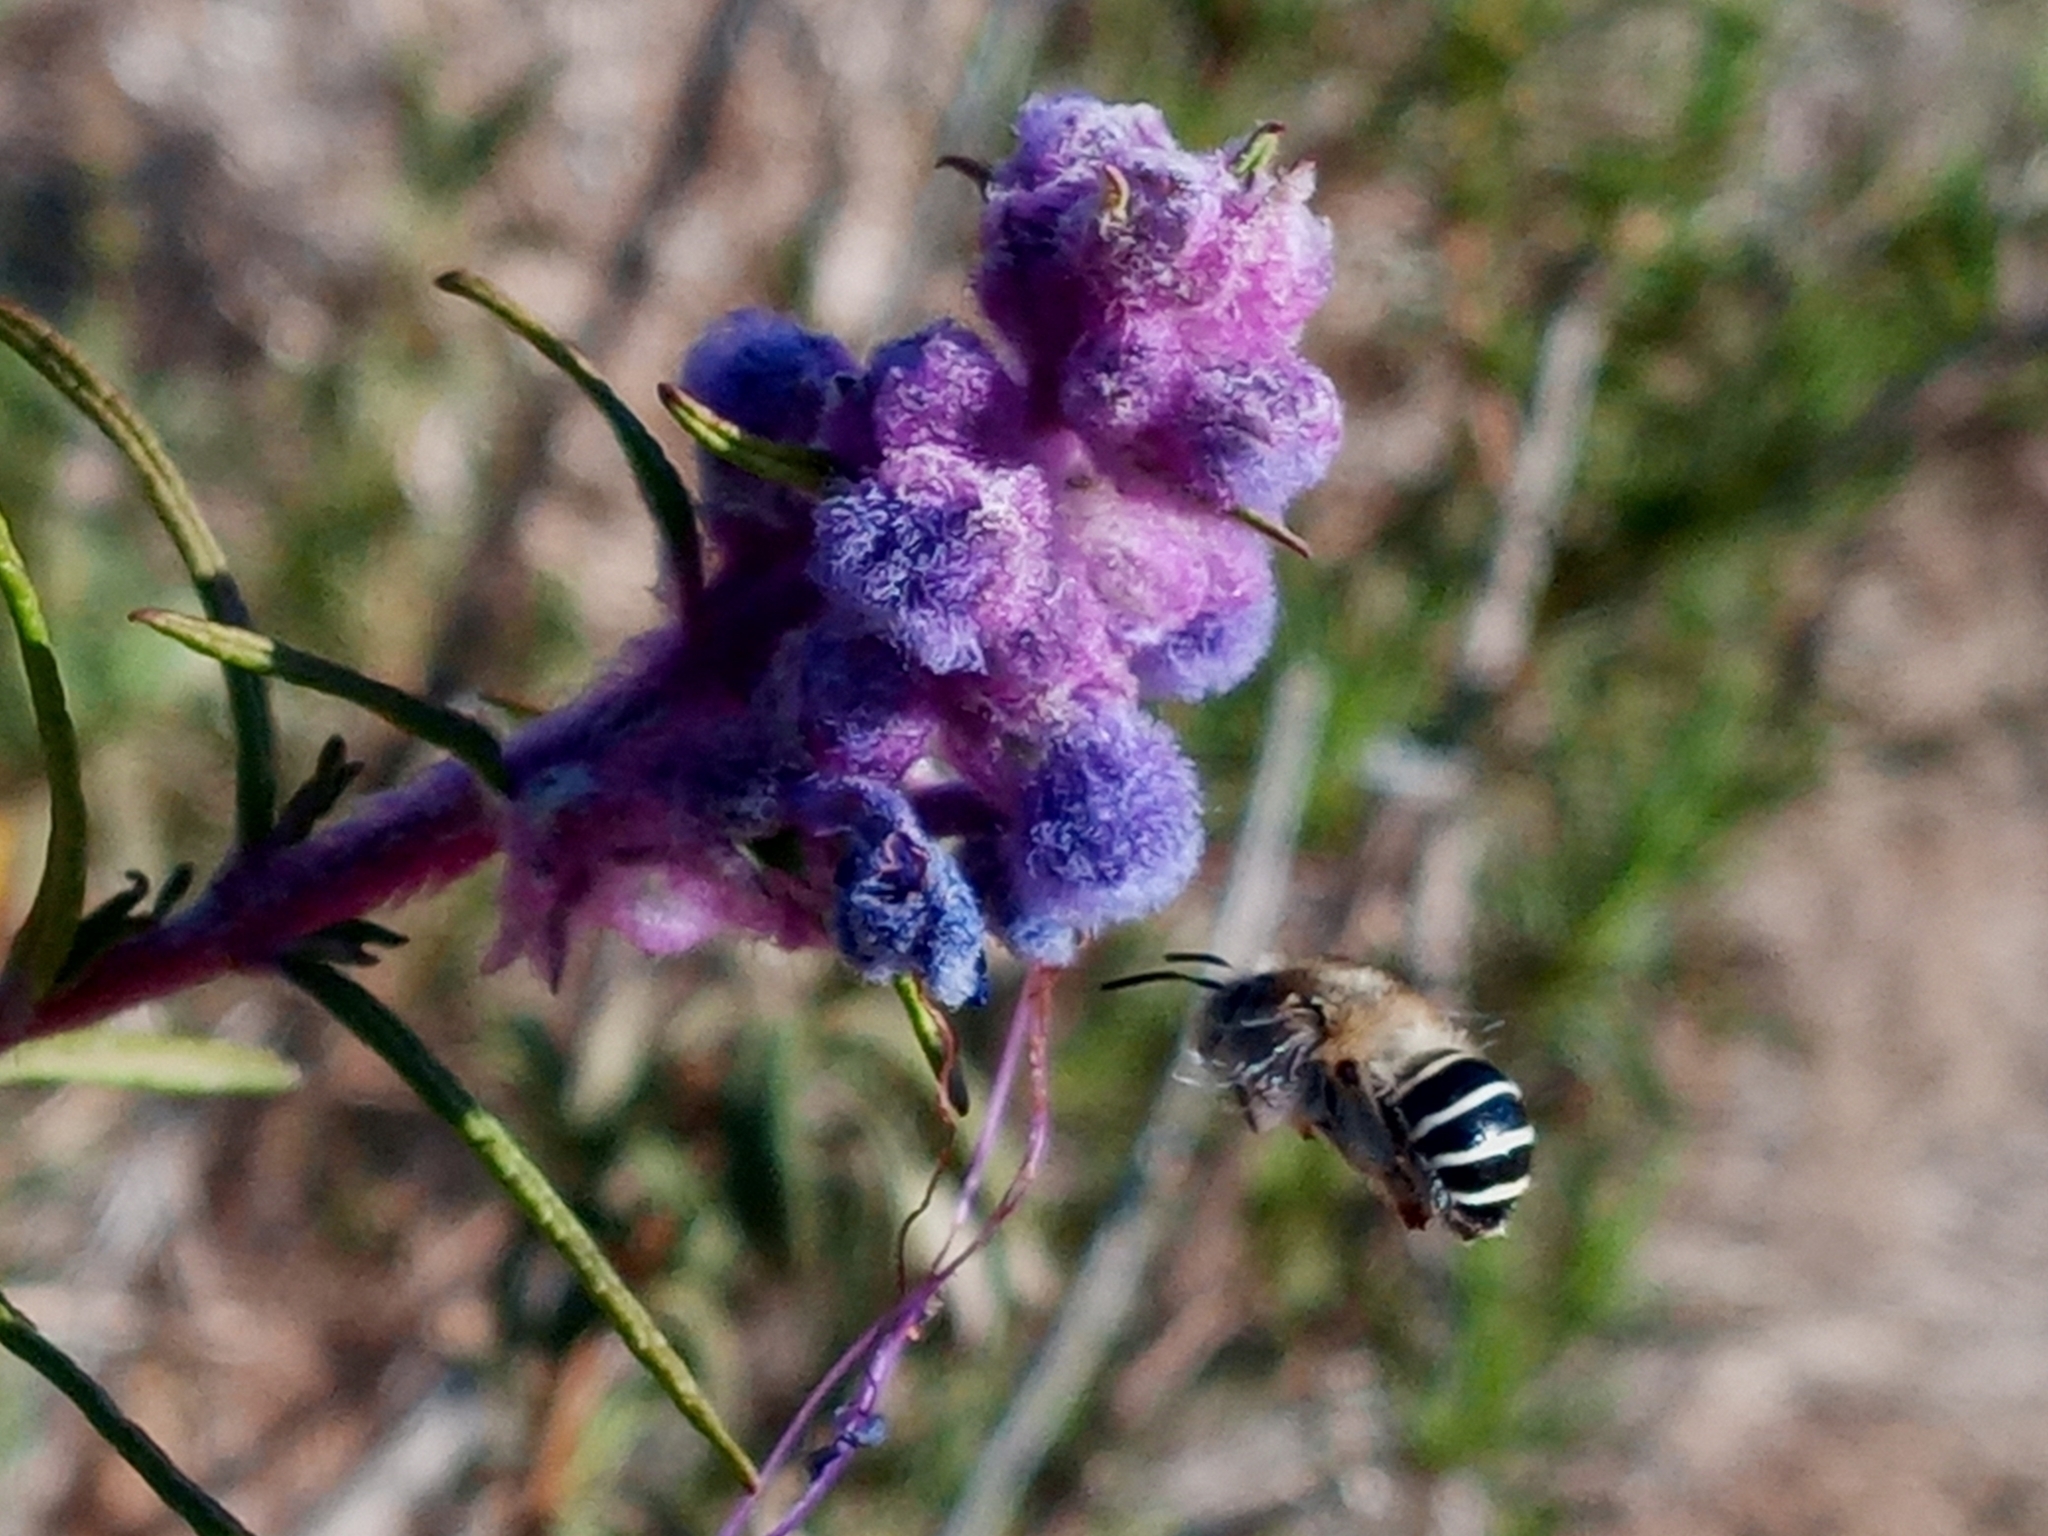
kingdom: Animalia
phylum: Arthropoda
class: Insecta
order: Hymenoptera
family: Apidae
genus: Anthophora
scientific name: Anthophora californica
